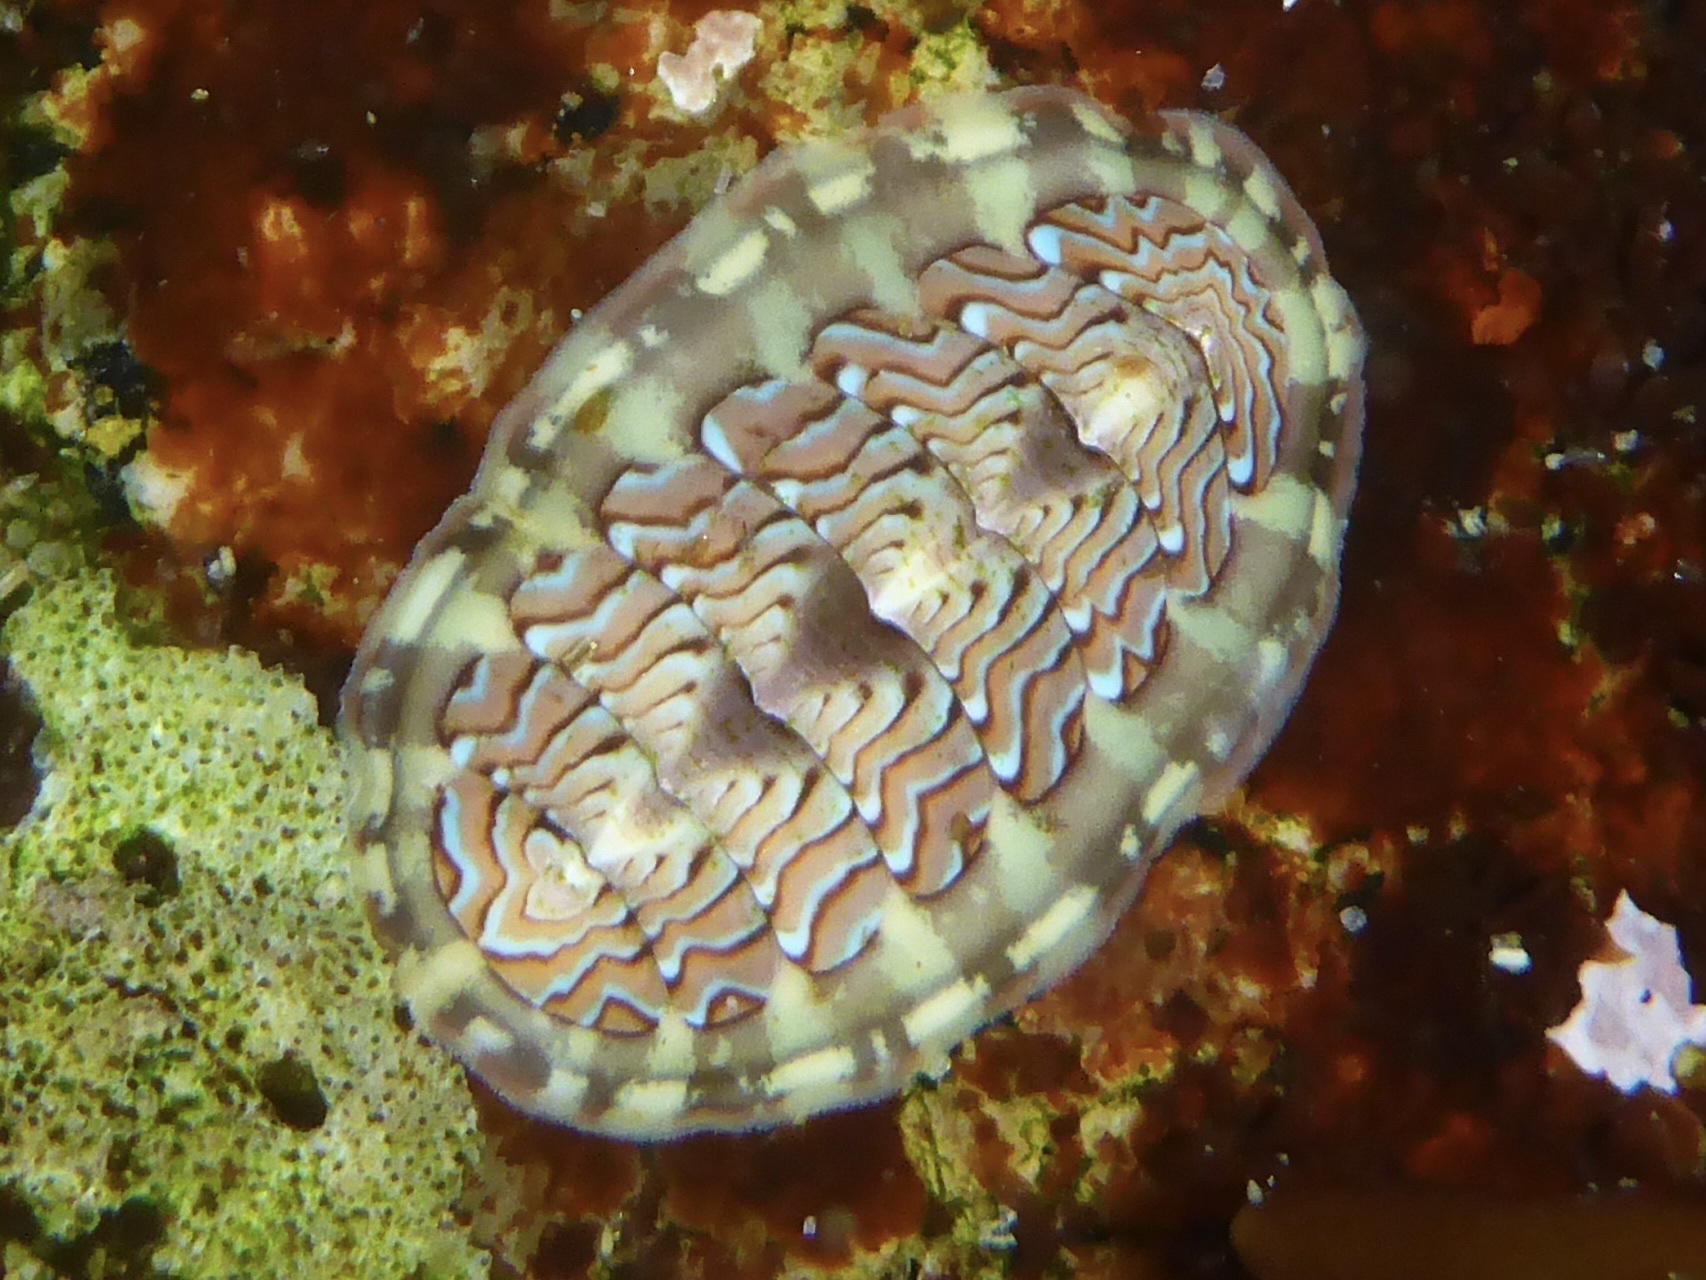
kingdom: Animalia
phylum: Mollusca
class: Polyplacophora
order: Chitonida
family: Tonicellidae
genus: Tonicella
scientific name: Tonicella lokii
